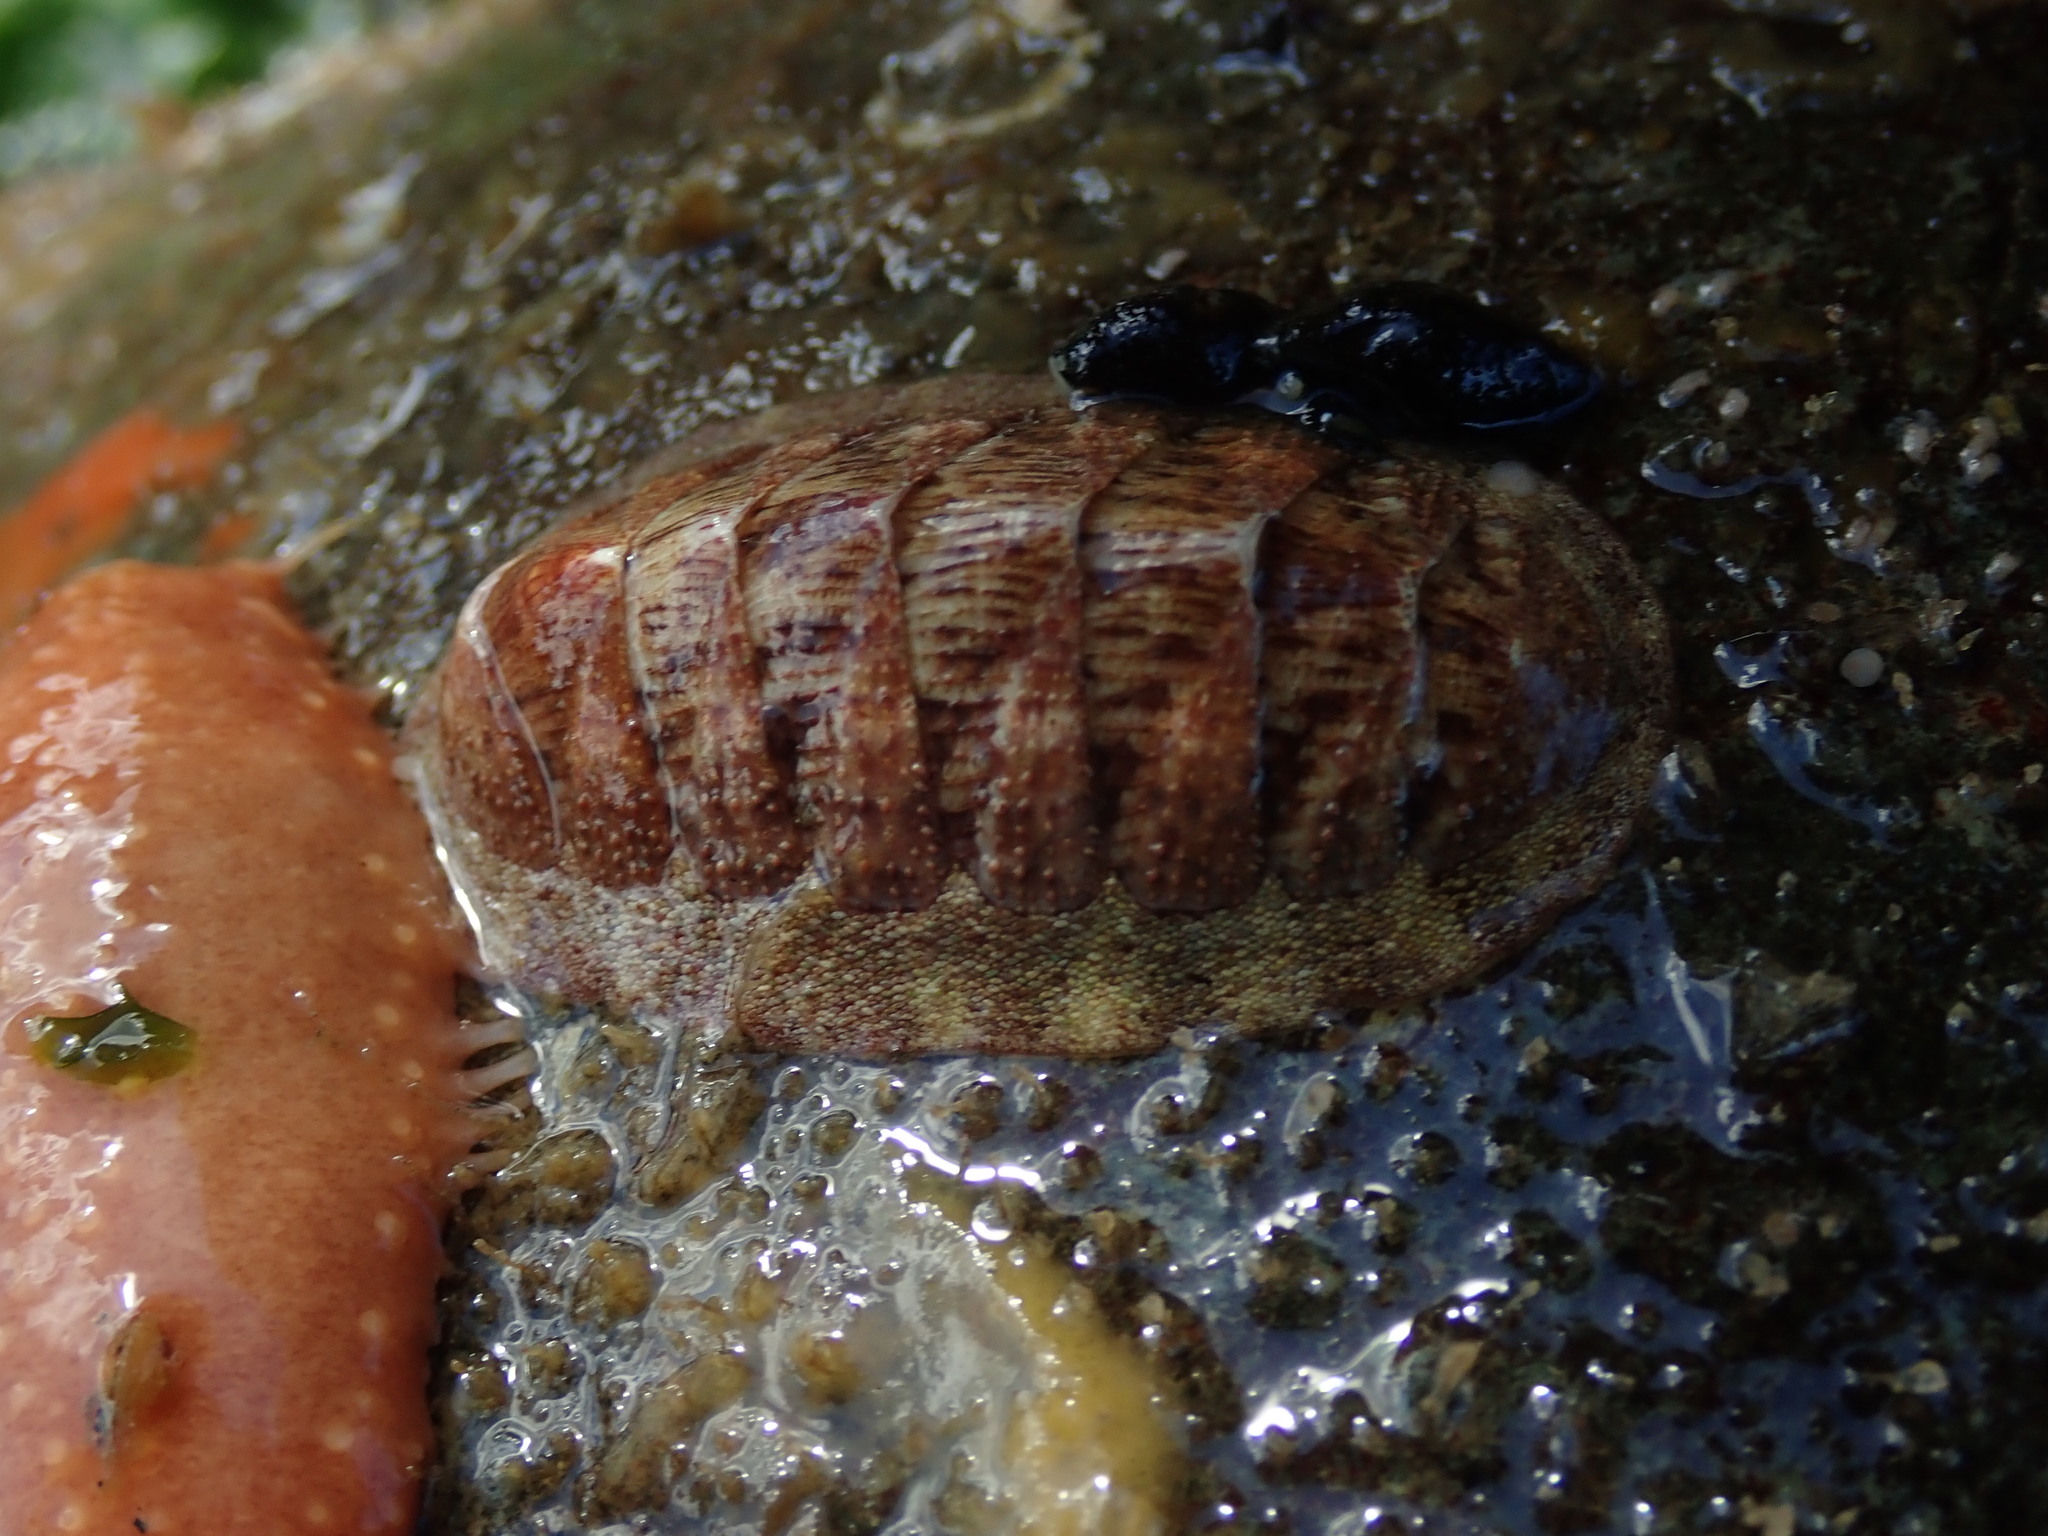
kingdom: Animalia
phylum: Mollusca
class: Polyplacophora
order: Chitonida
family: Ischnochitonidae
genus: Lepidozona
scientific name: Lepidozona mertensii
